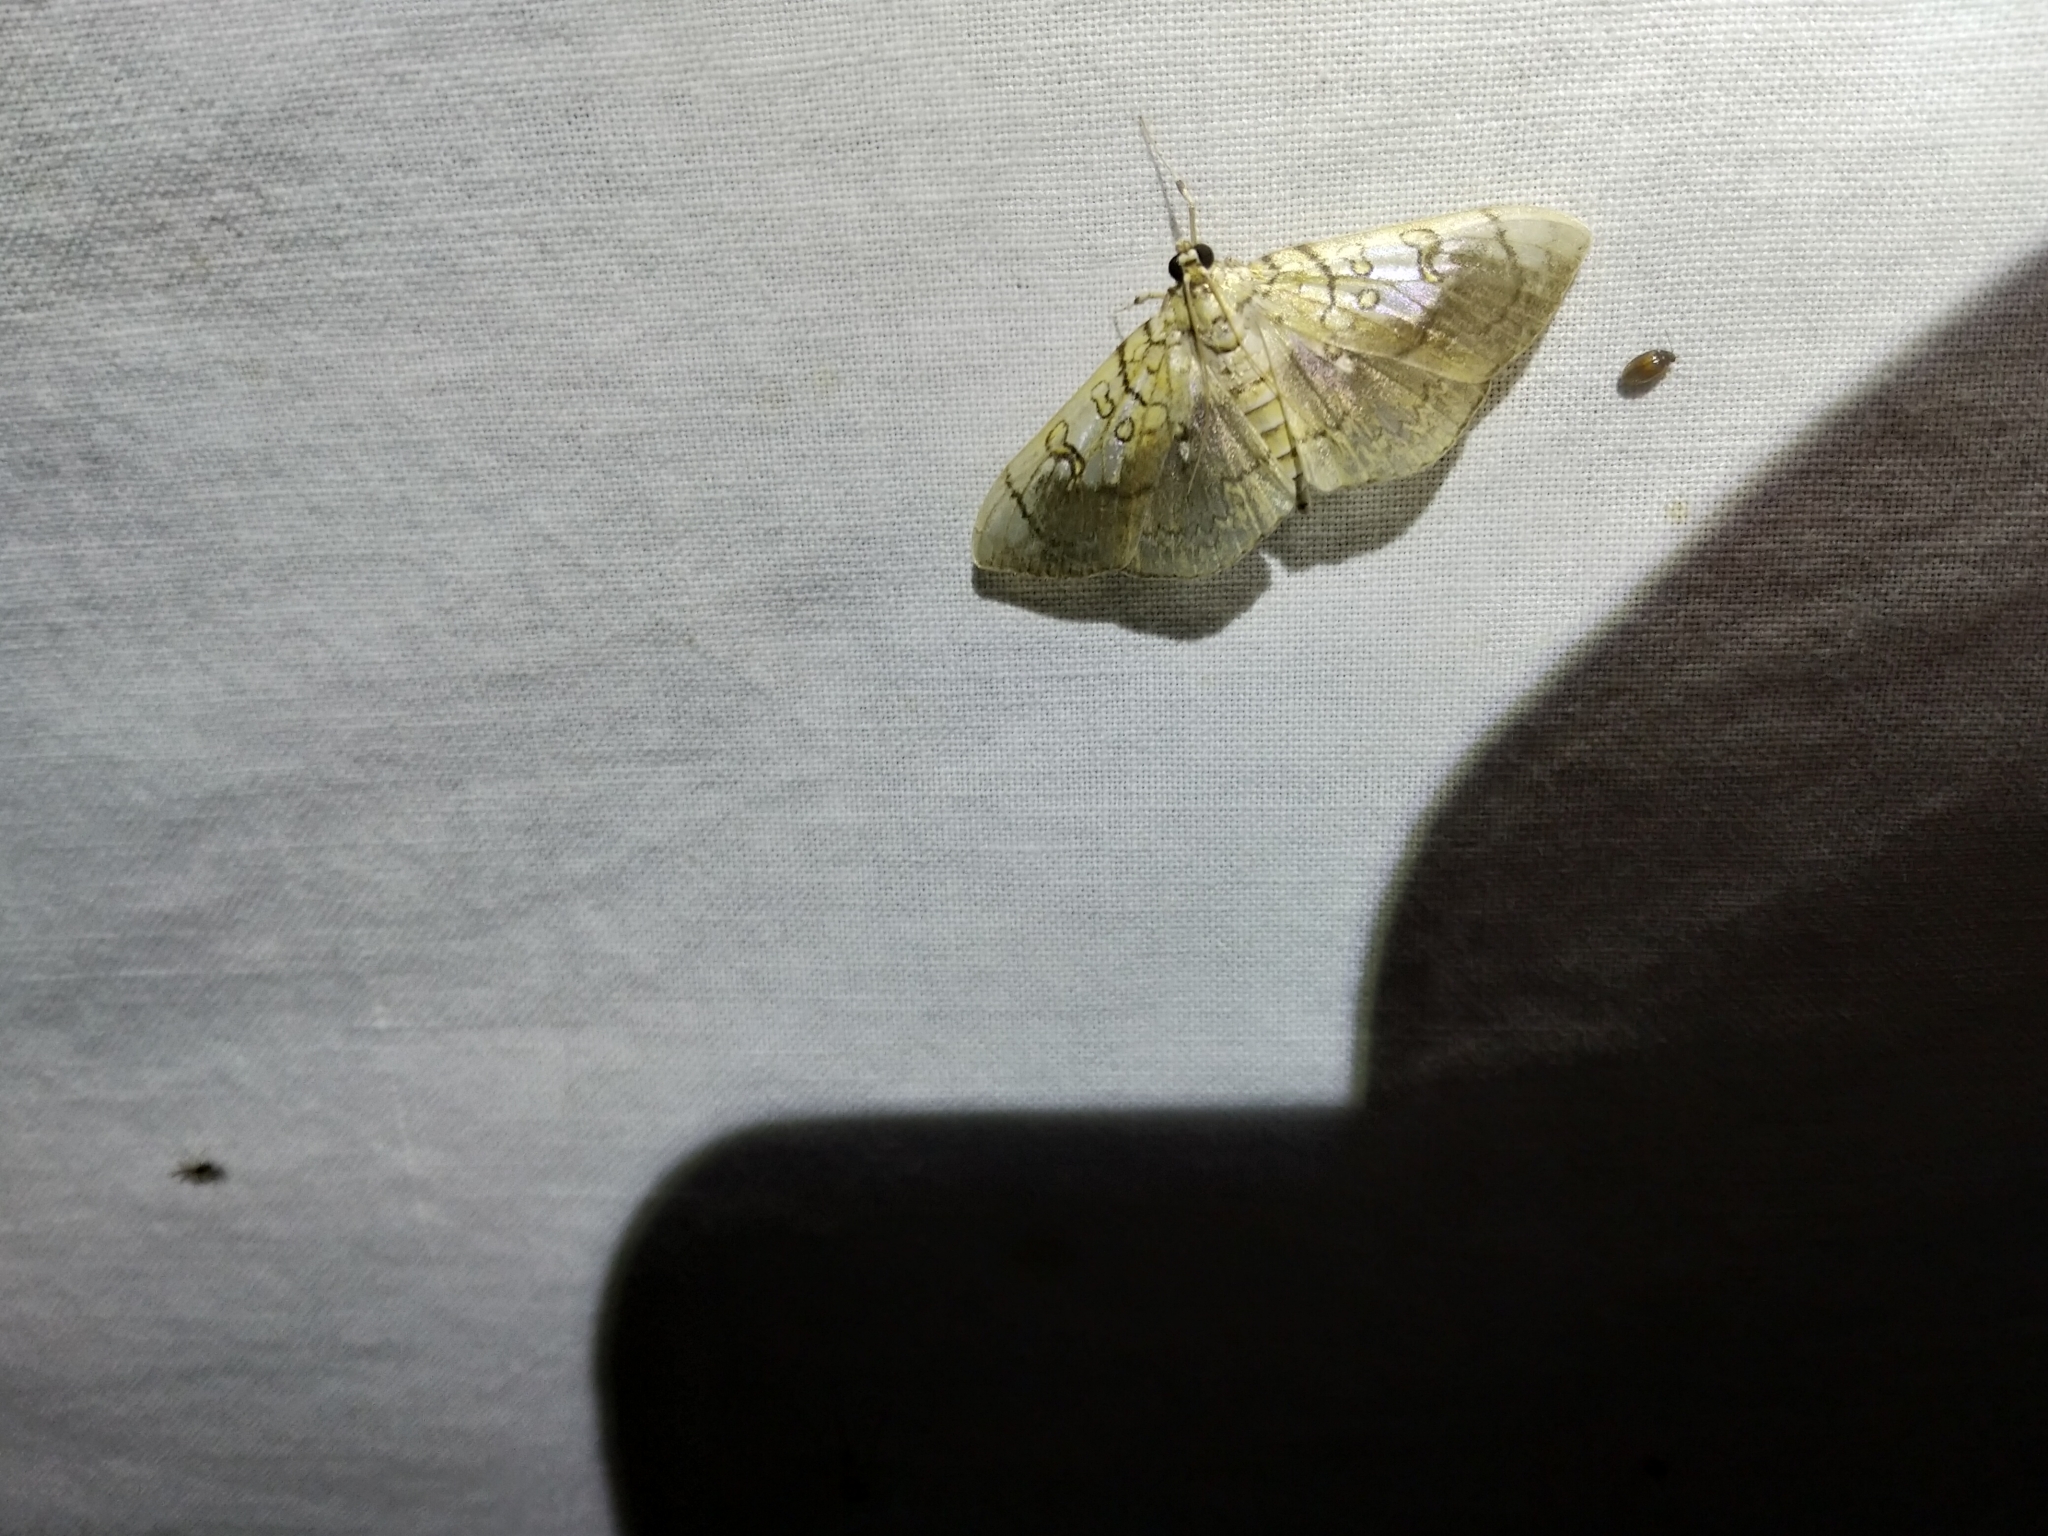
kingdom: Animalia
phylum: Arthropoda
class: Insecta
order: Lepidoptera
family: Crambidae
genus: Pantographa
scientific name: Pantographa limata
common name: Basswood leafroller moth
